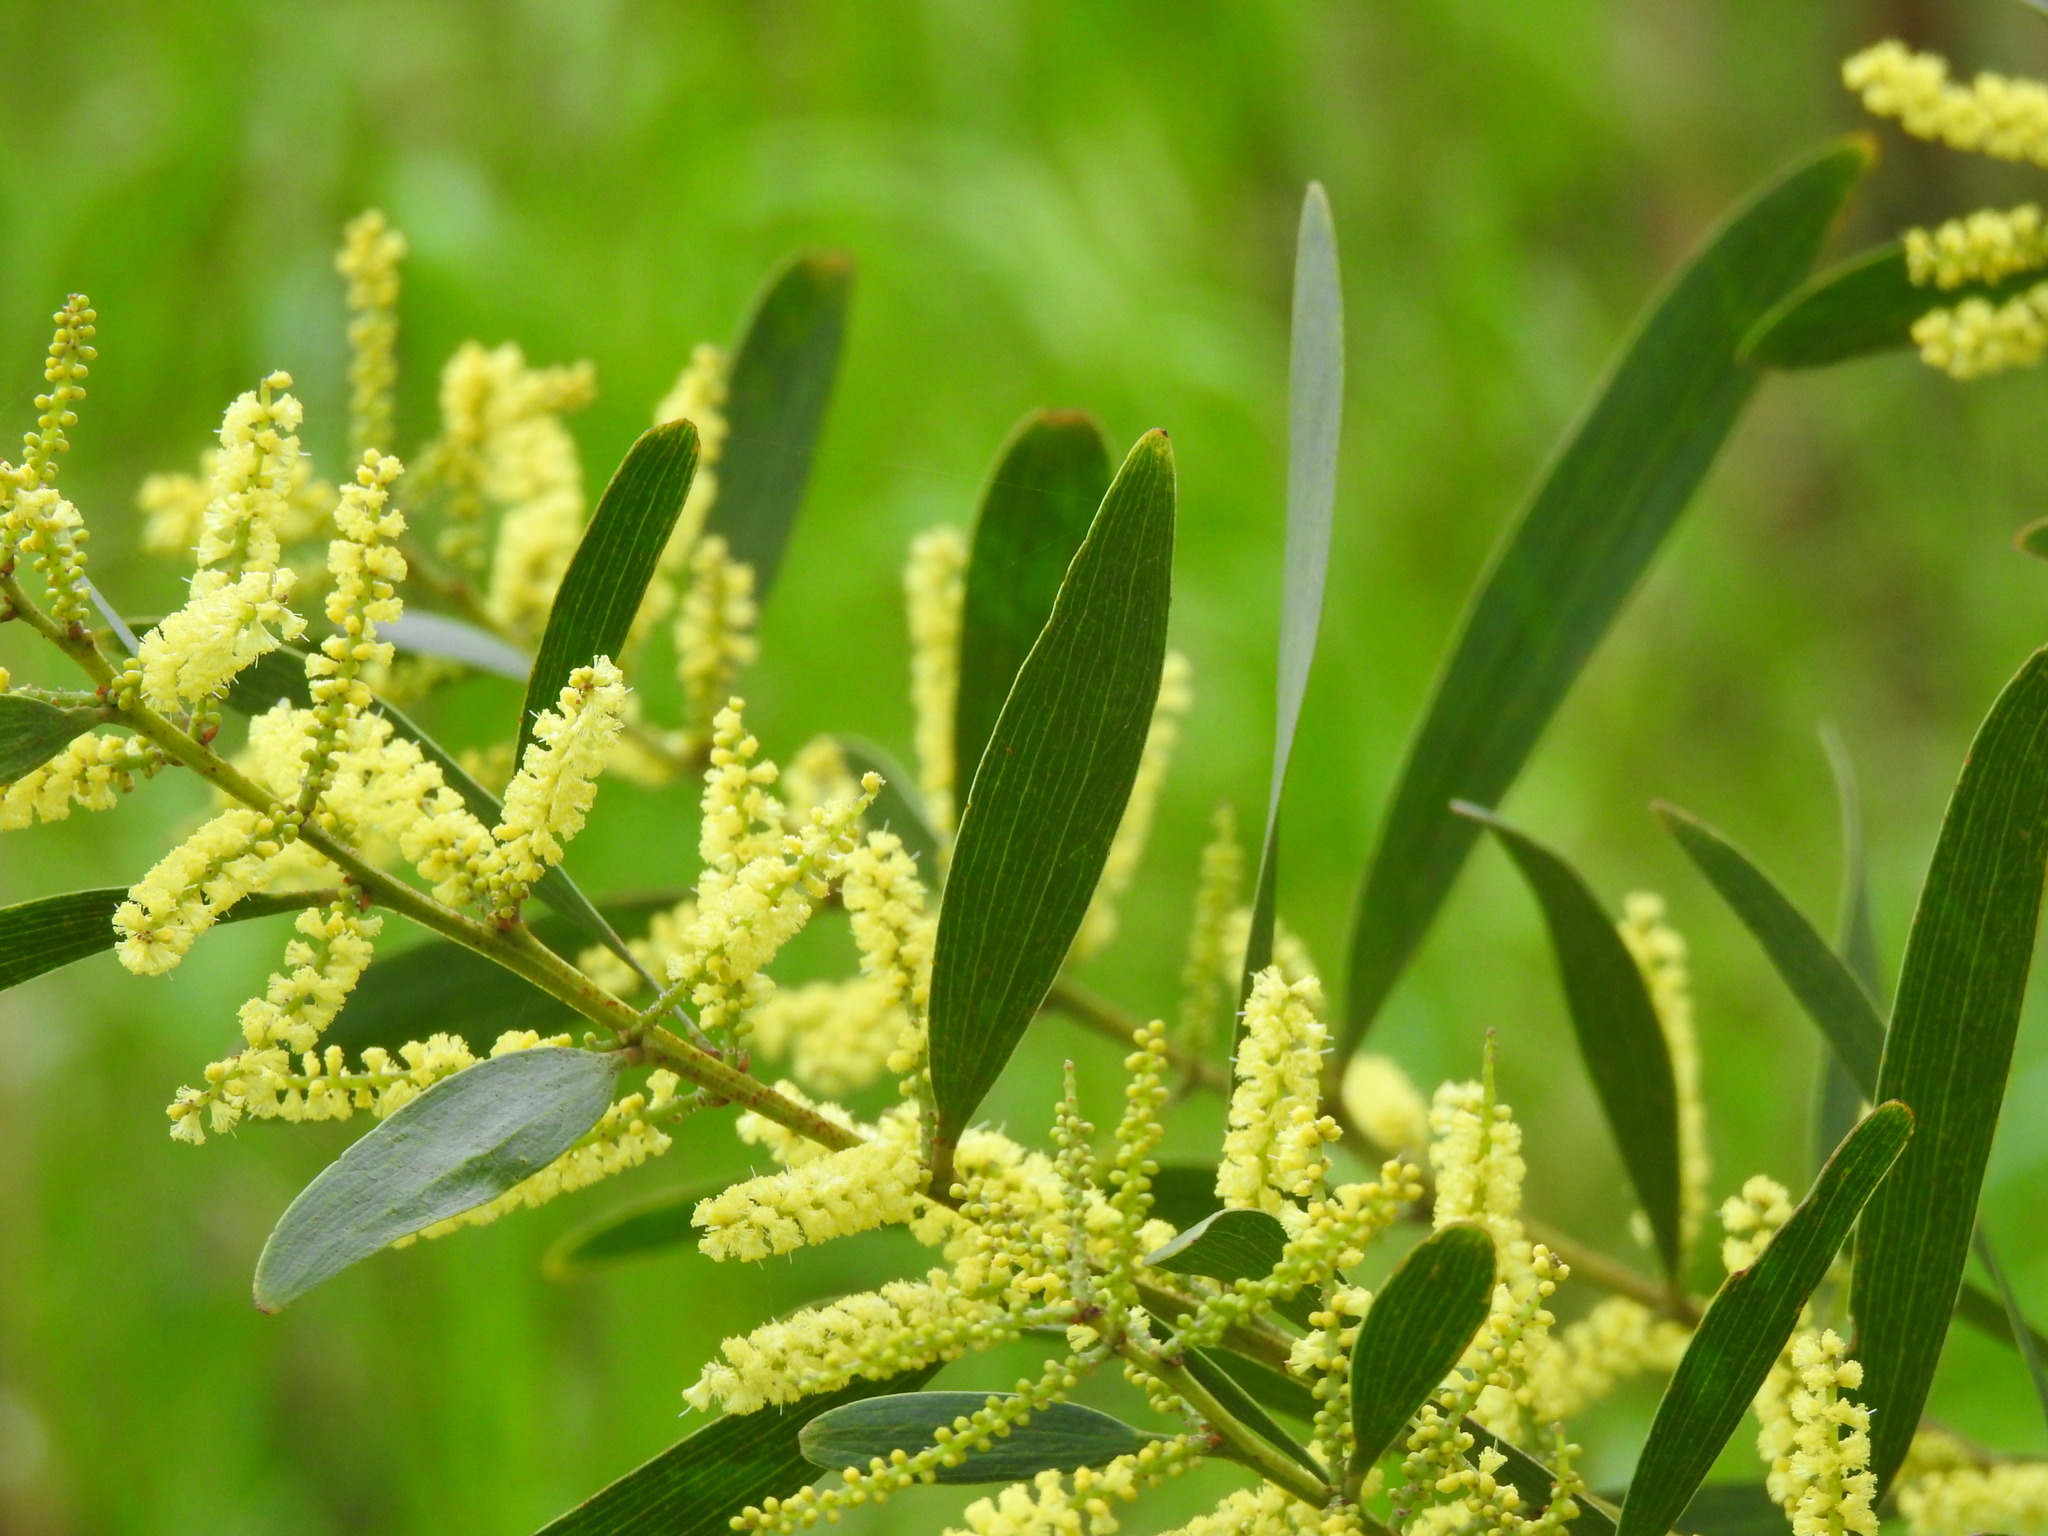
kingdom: Plantae
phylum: Tracheophyta
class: Magnoliopsida
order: Fabales
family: Fabaceae
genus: Acacia
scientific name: Acacia longifolia
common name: Sydney golden wattle
